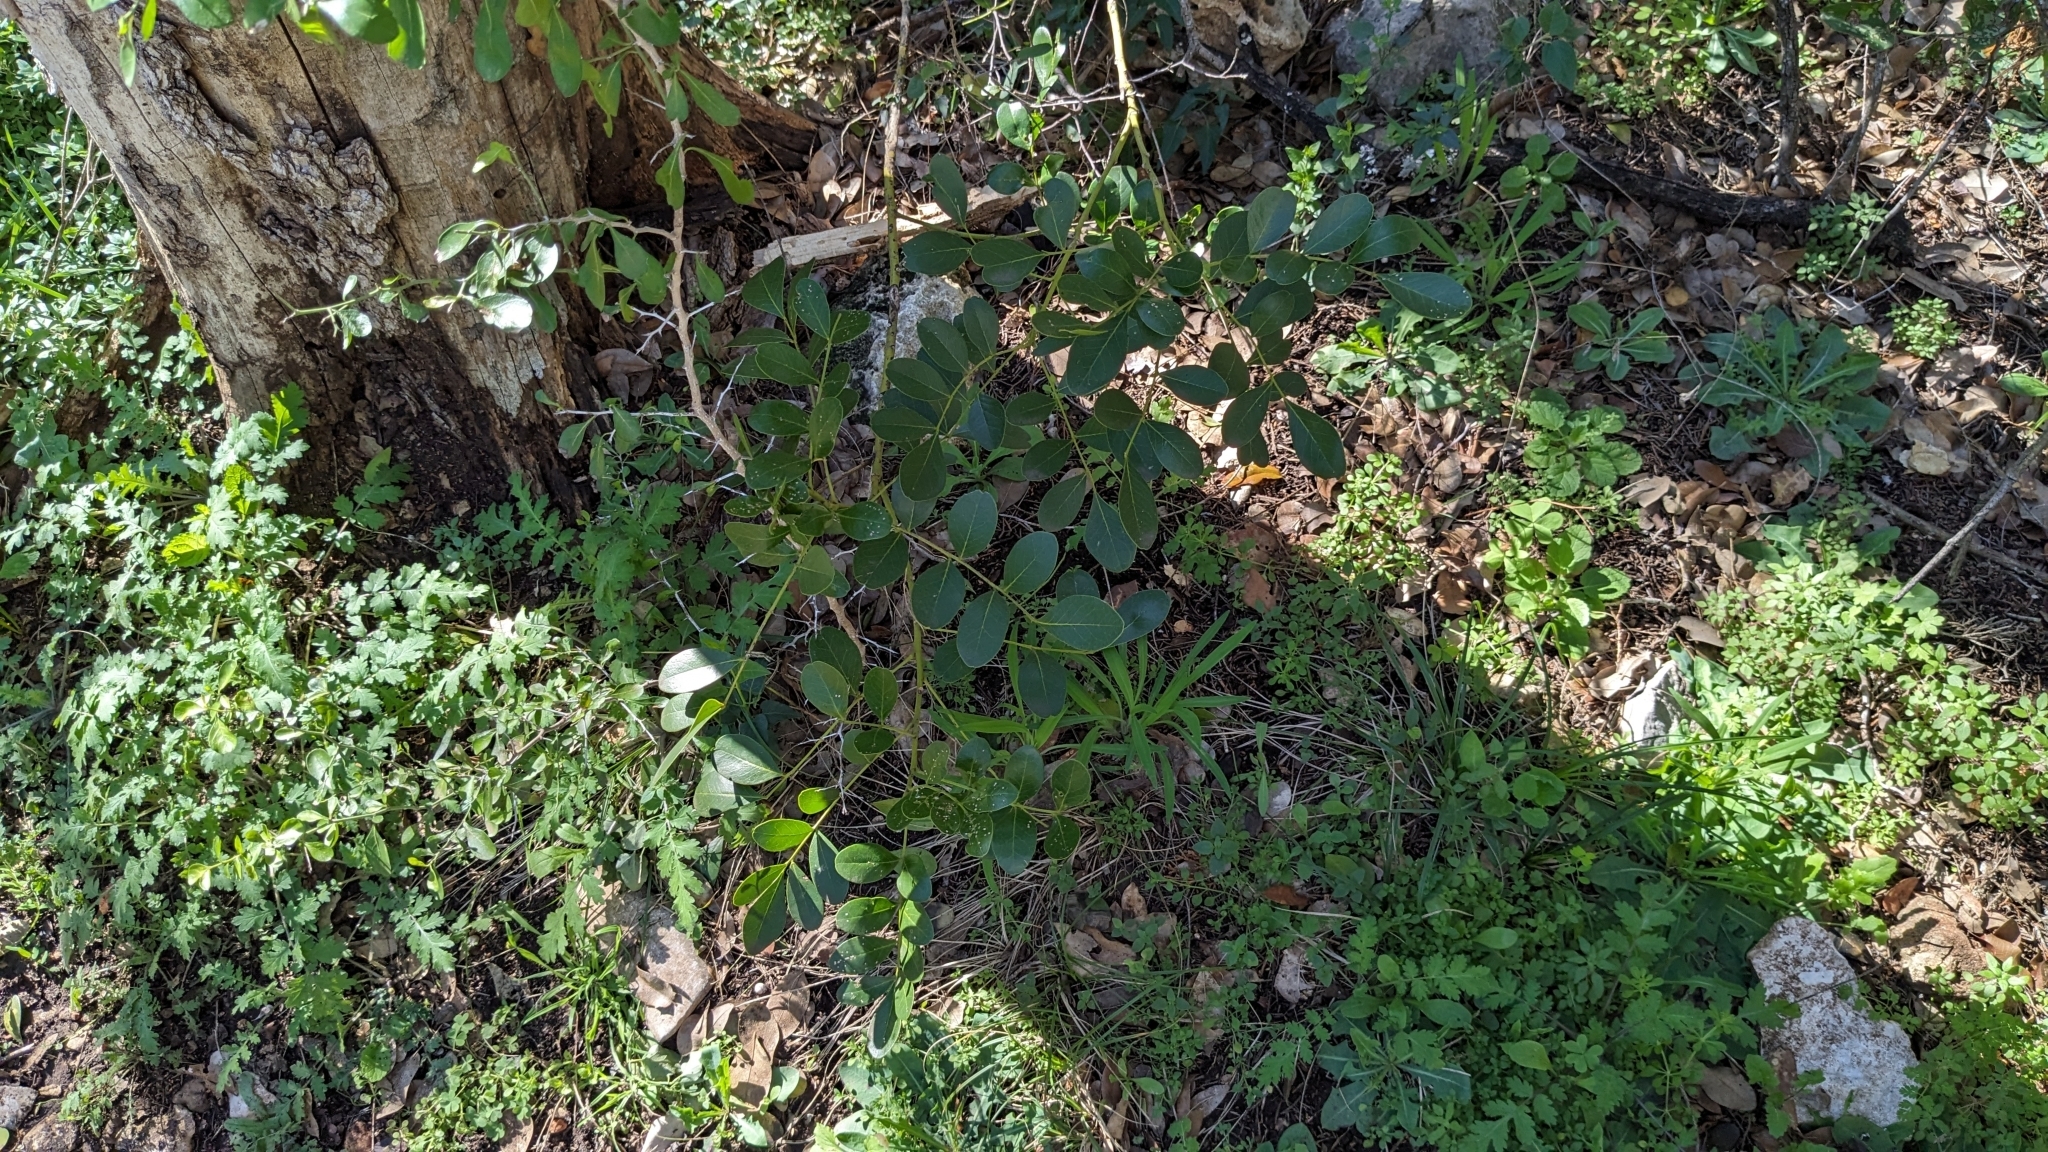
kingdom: Plantae
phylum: Tracheophyta
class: Magnoliopsida
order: Fabales
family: Fabaceae
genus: Dermatophyllum
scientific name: Dermatophyllum secundiflorum
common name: Texas-mountain-laurel
